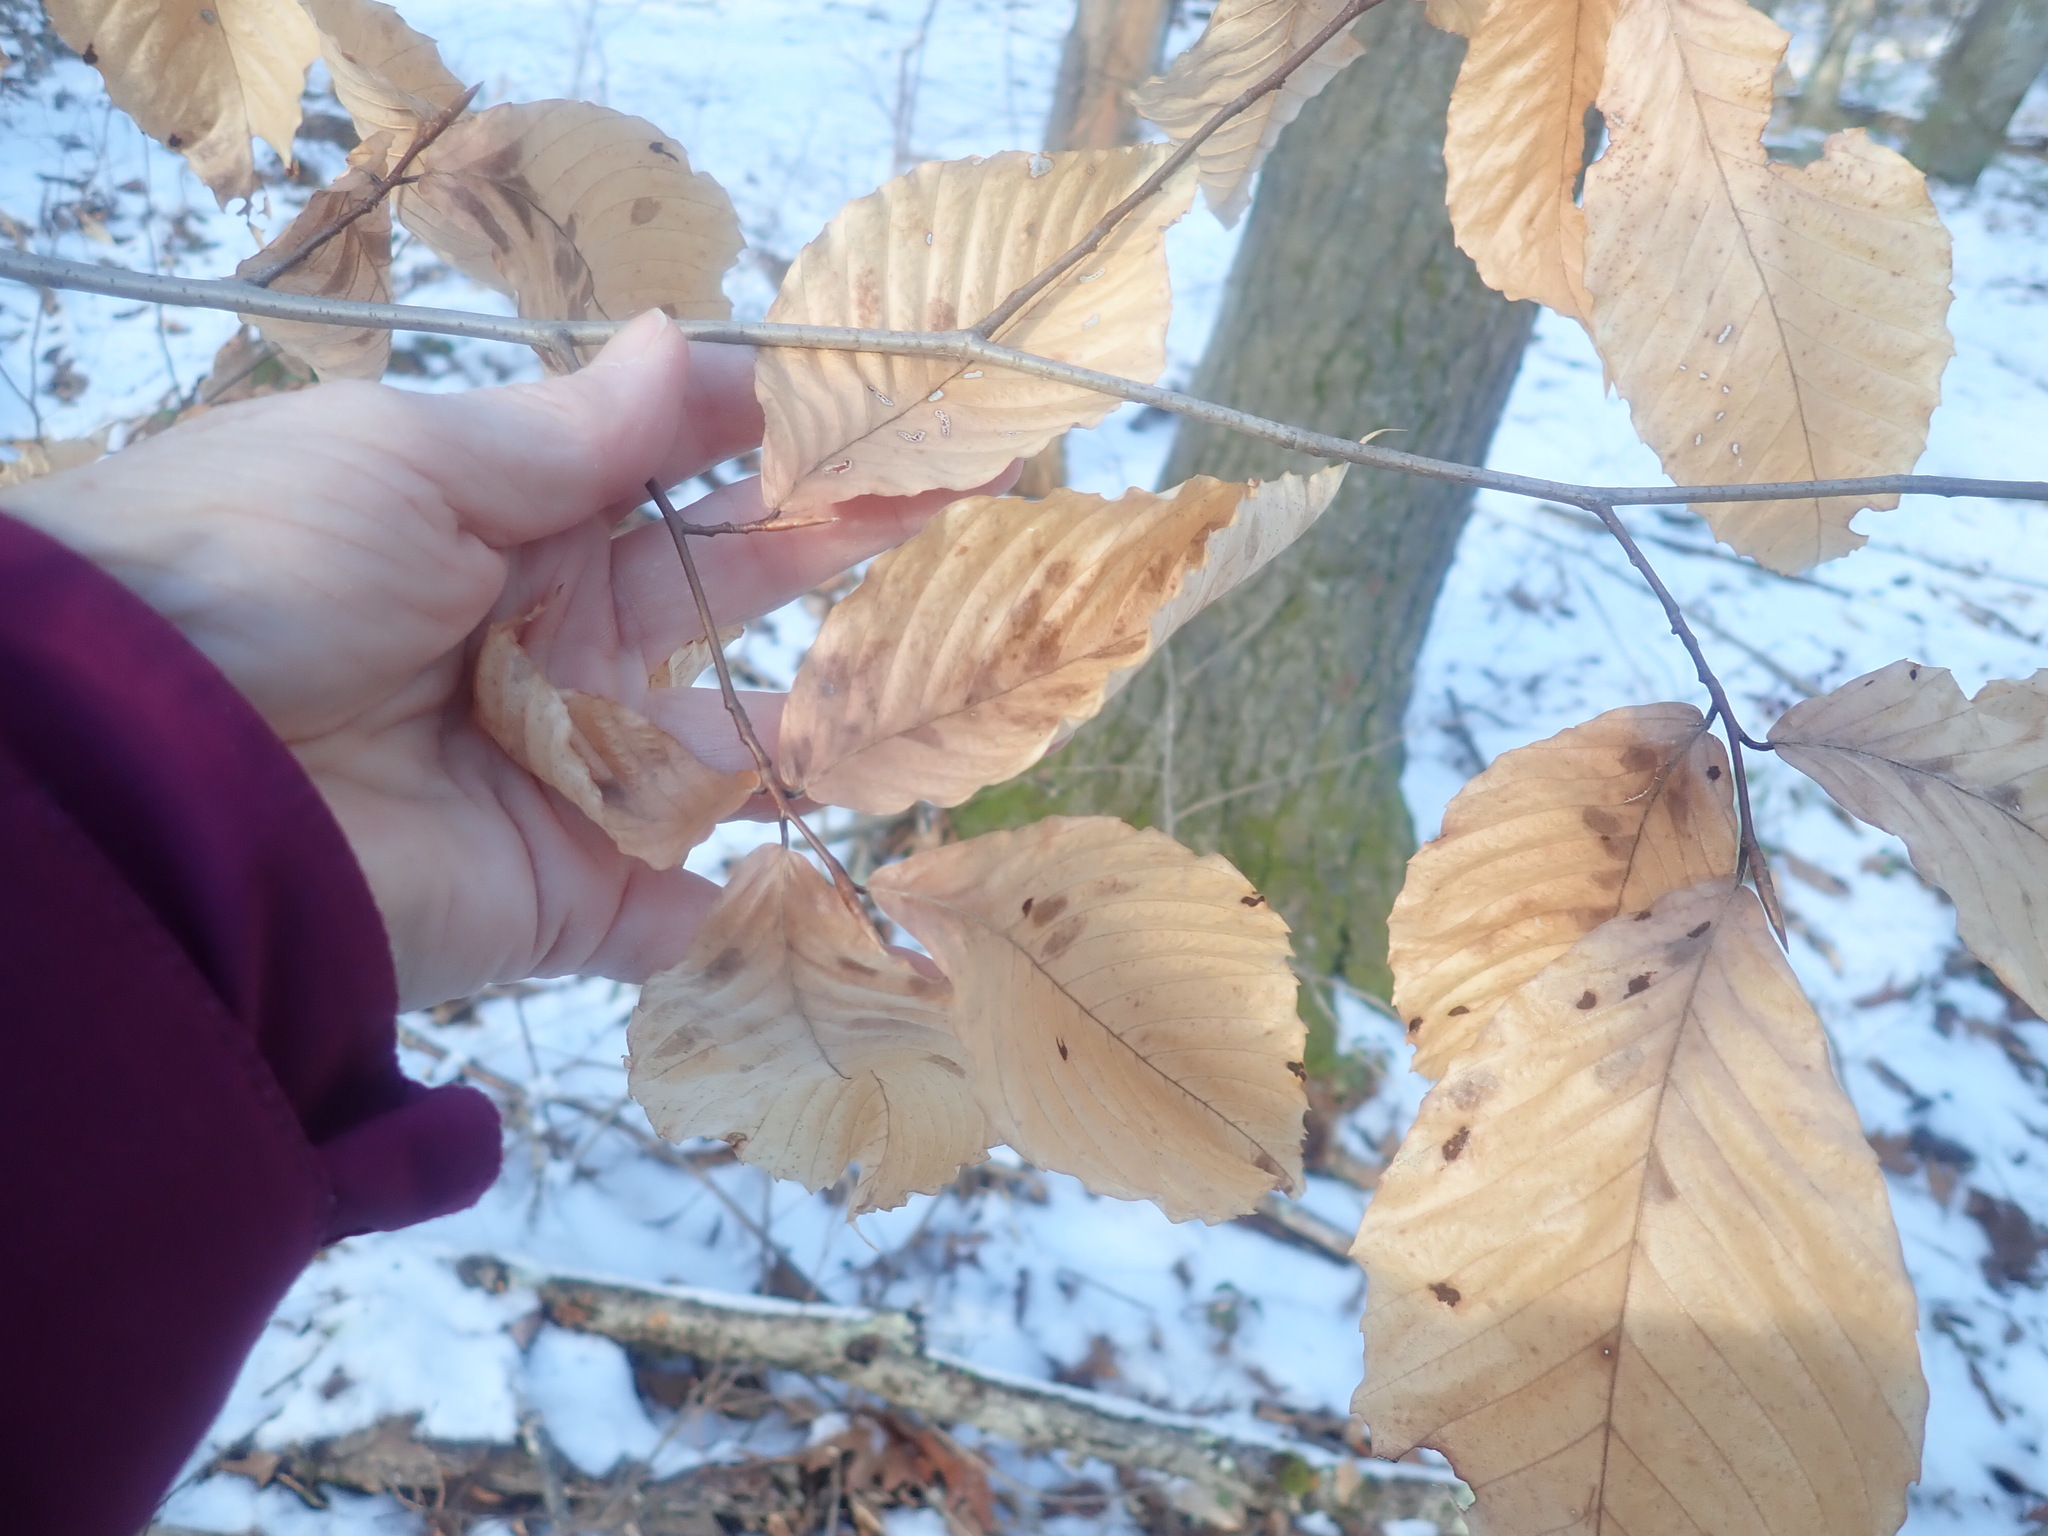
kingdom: Plantae
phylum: Tracheophyta
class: Magnoliopsida
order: Fagales
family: Fagaceae
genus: Fagus
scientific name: Fagus grandifolia
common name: American beech
